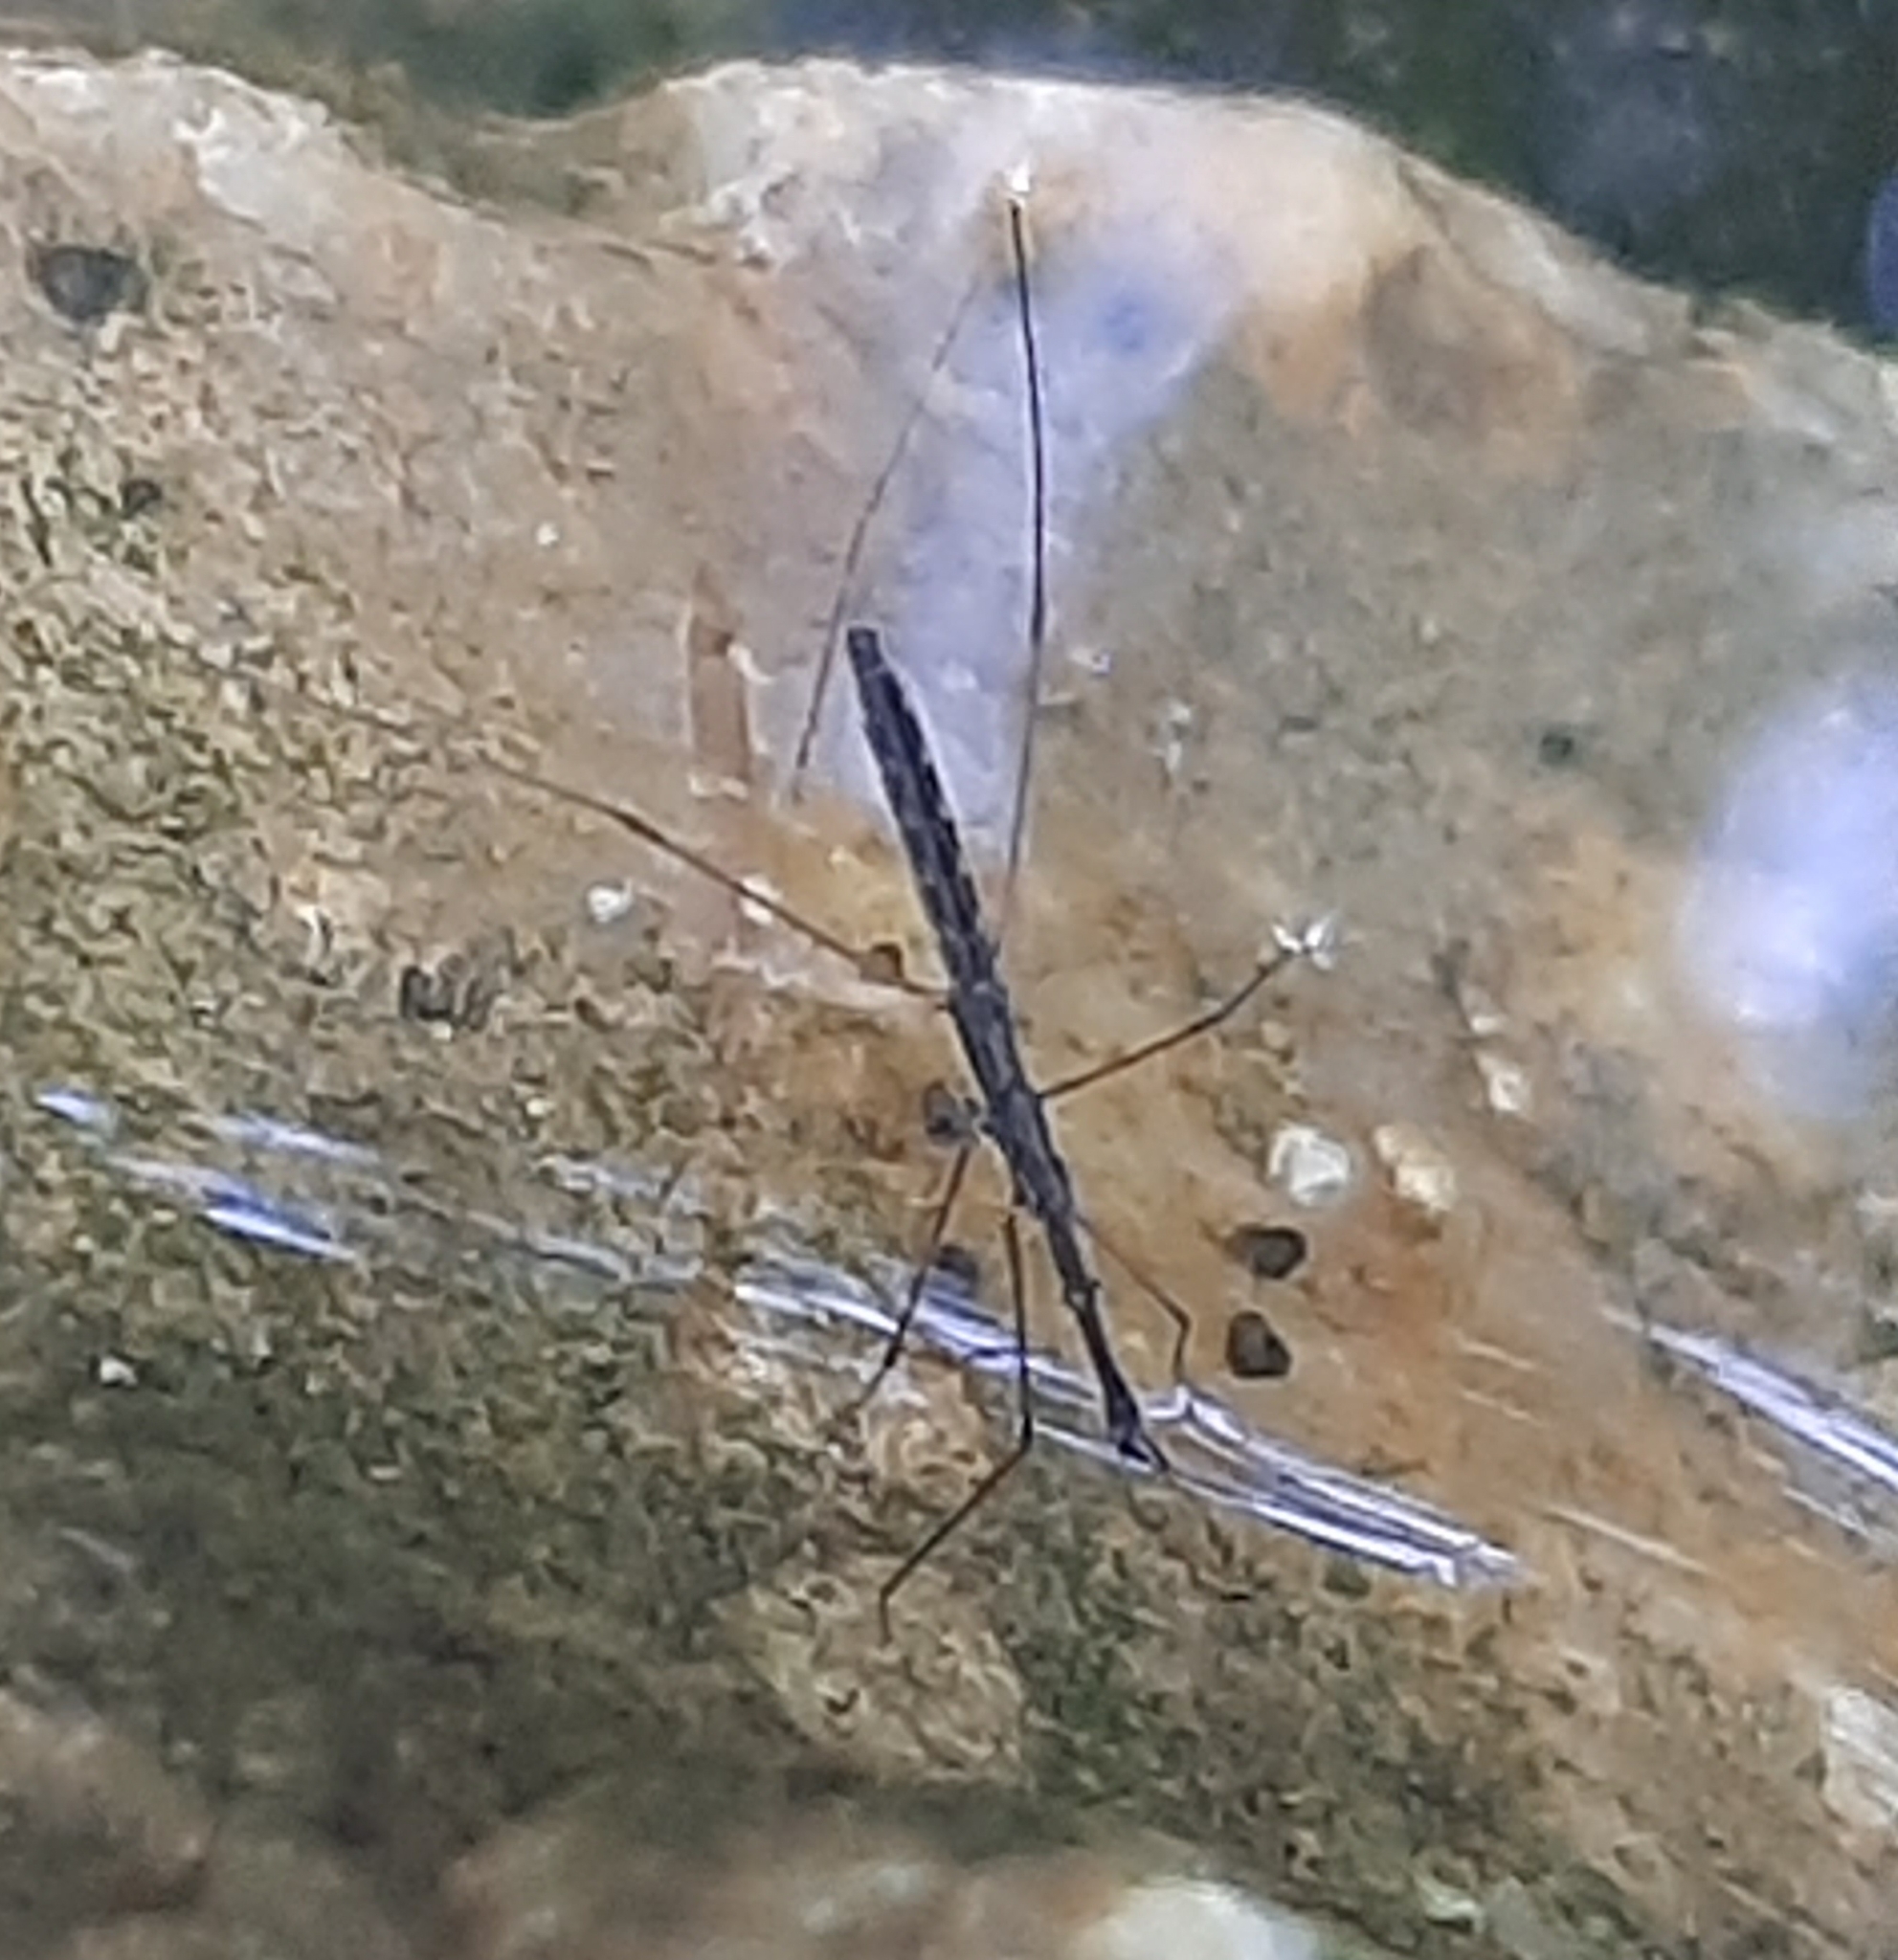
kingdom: Animalia
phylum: Arthropoda
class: Insecta
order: Hemiptera
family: Hydrometridae
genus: Hydrometra
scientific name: Hydrometra stagnorum
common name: Water measurer
